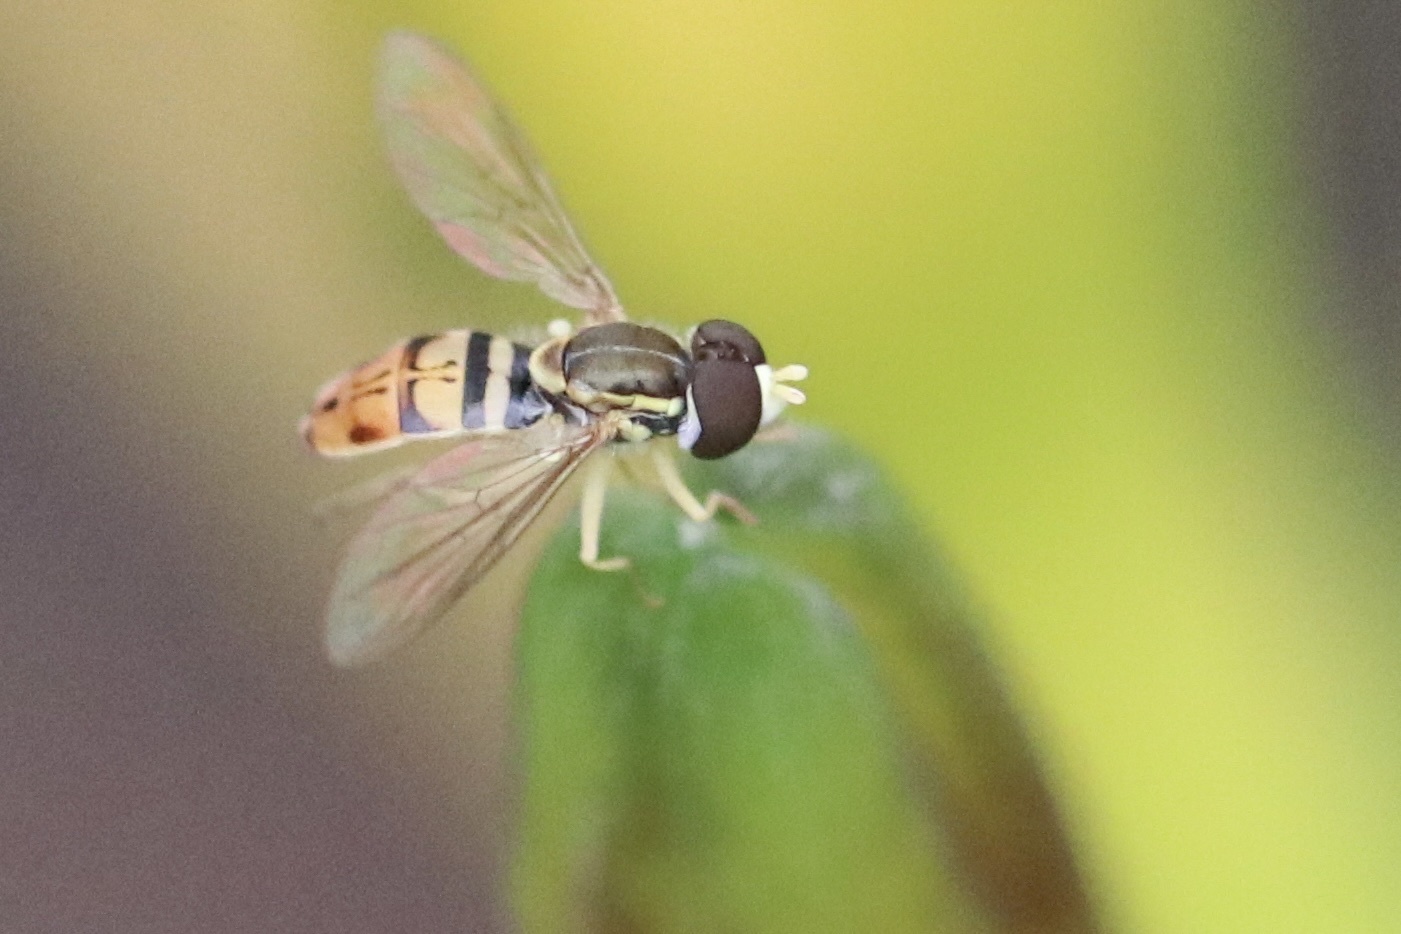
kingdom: Animalia
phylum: Arthropoda
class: Insecta
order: Diptera
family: Syrphidae
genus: Toxomerus
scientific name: Toxomerus marginatus
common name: Syrphid fly
